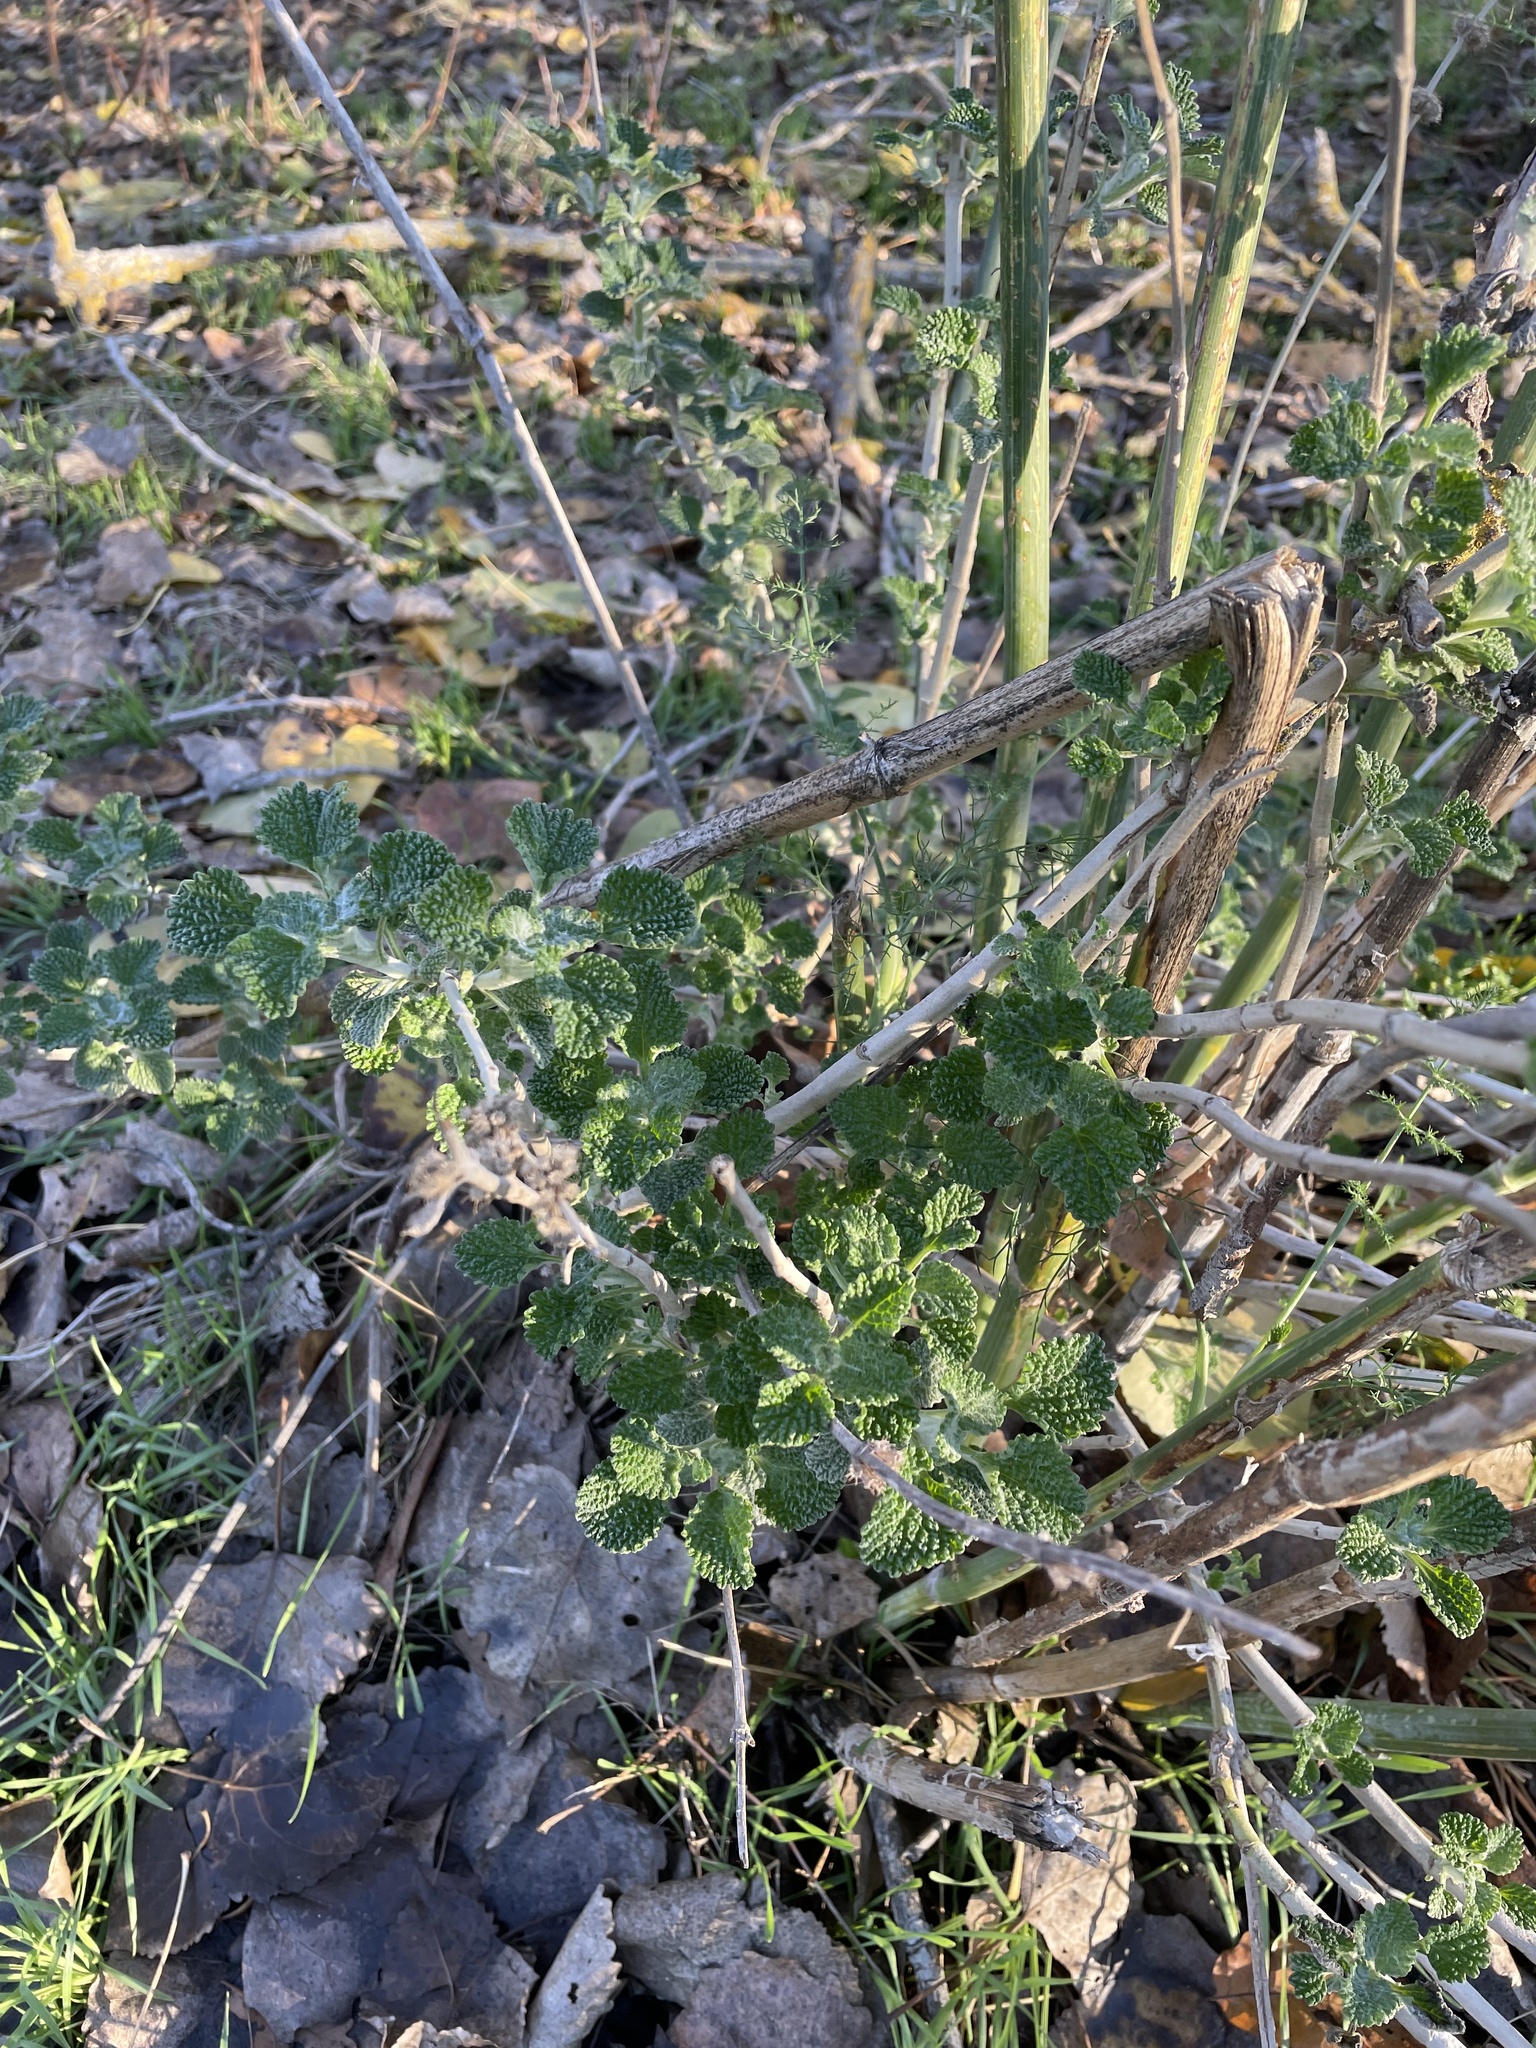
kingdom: Plantae
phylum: Tracheophyta
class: Magnoliopsida
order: Lamiales
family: Lamiaceae
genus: Marrubium
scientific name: Marrubium vulgare
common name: Horehound
